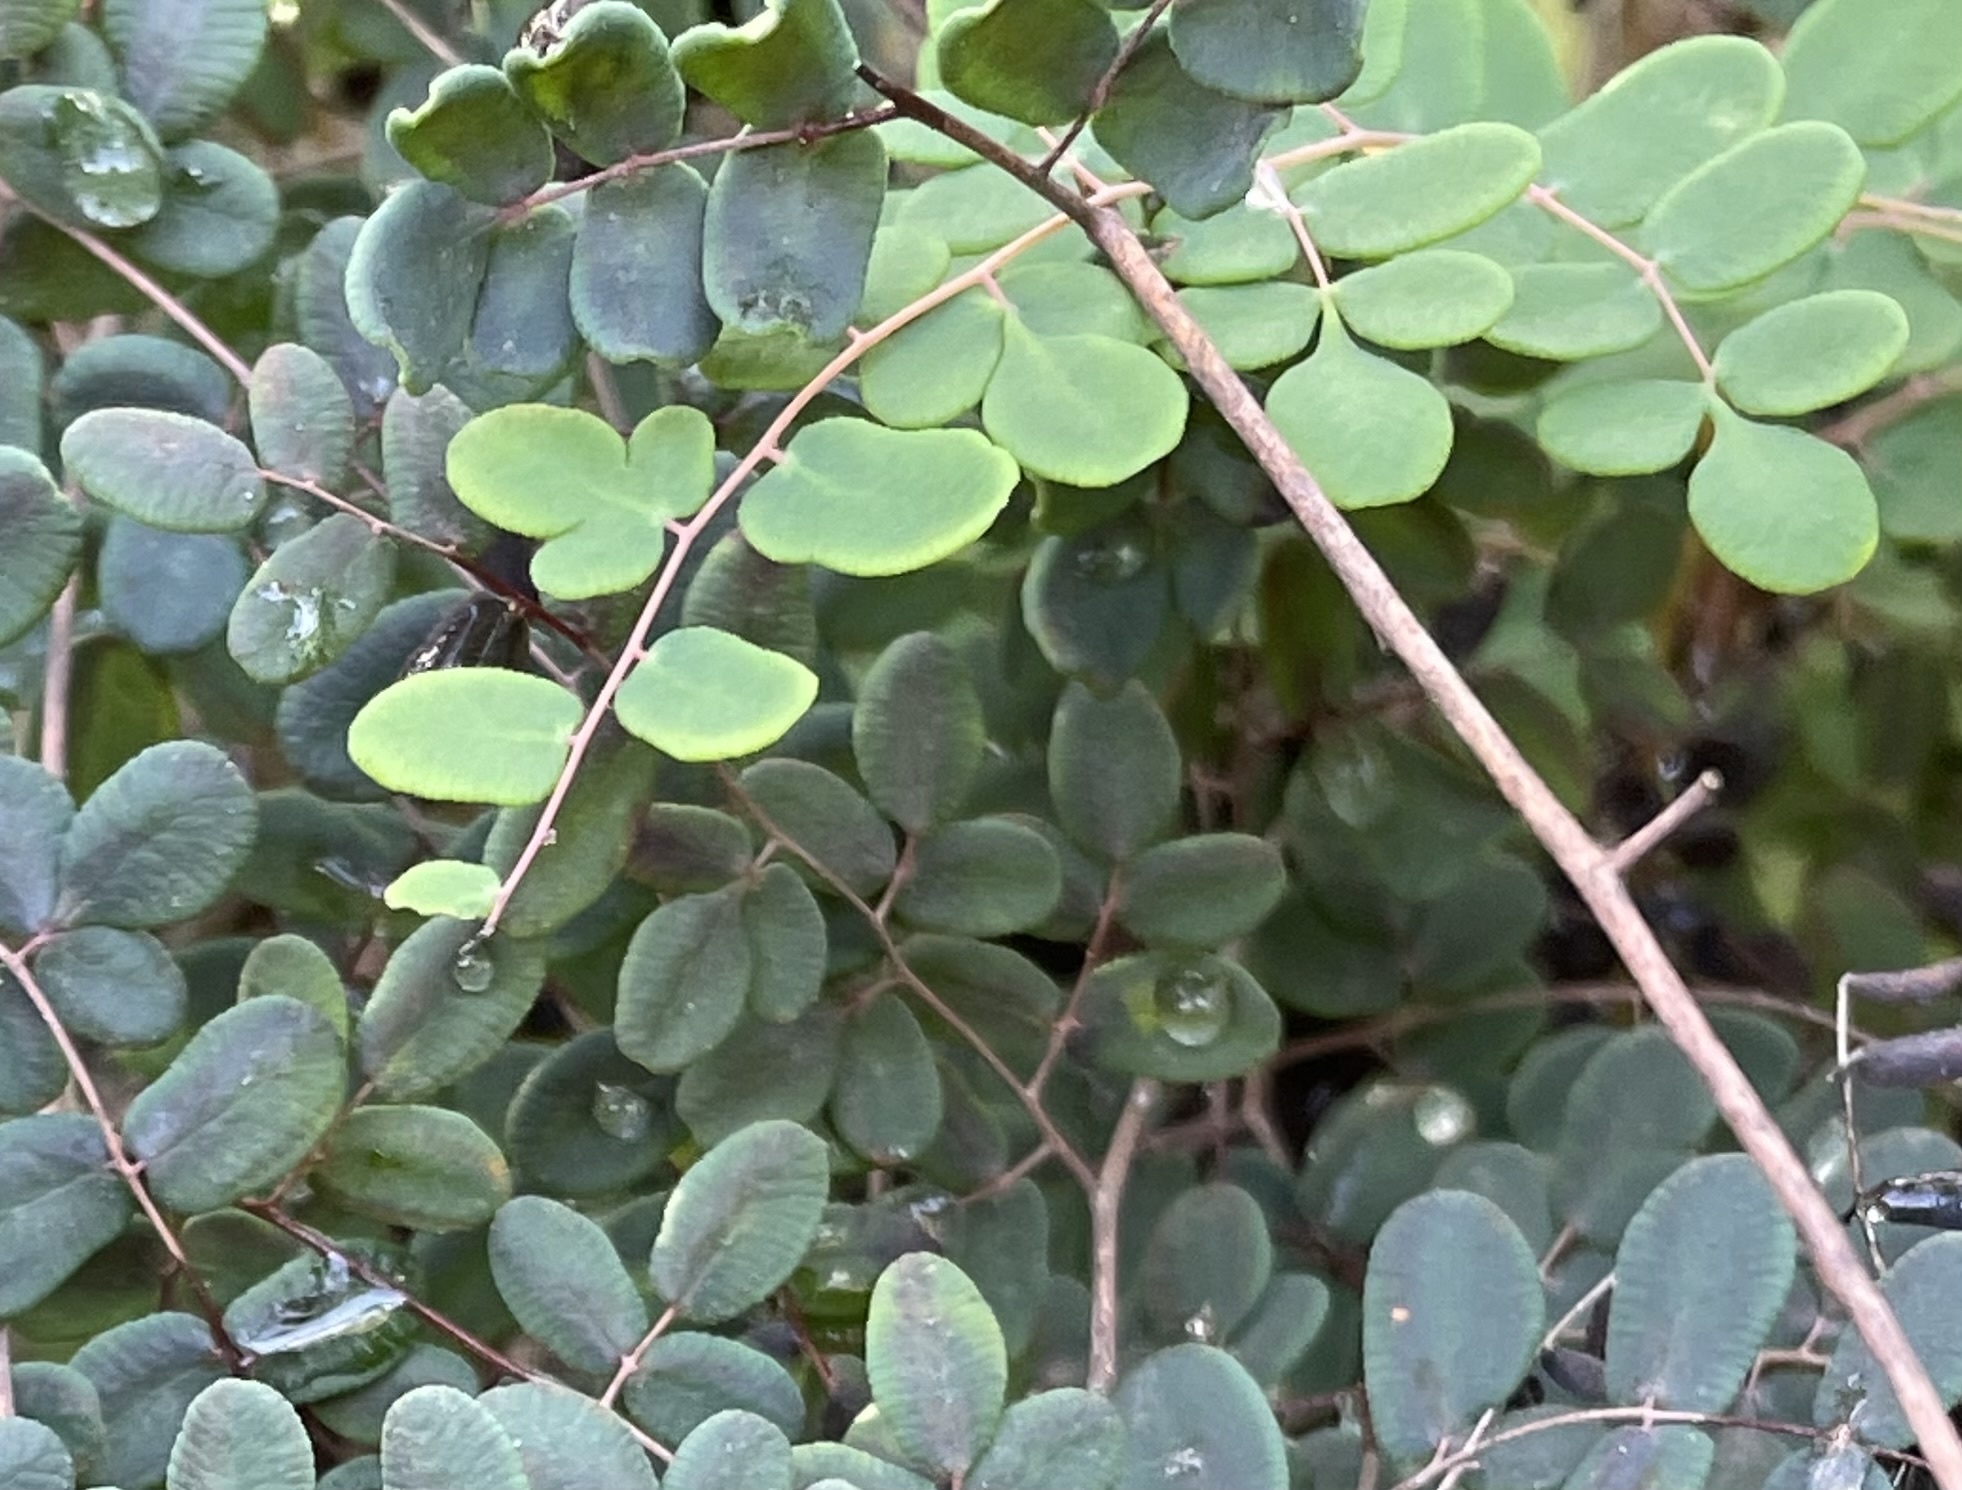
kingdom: Plantae
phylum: Tracheophyta
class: Polypodiopsida
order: Polypodiales
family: Pteridaceae
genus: Pellaea
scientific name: Pellaea andromedifolia
